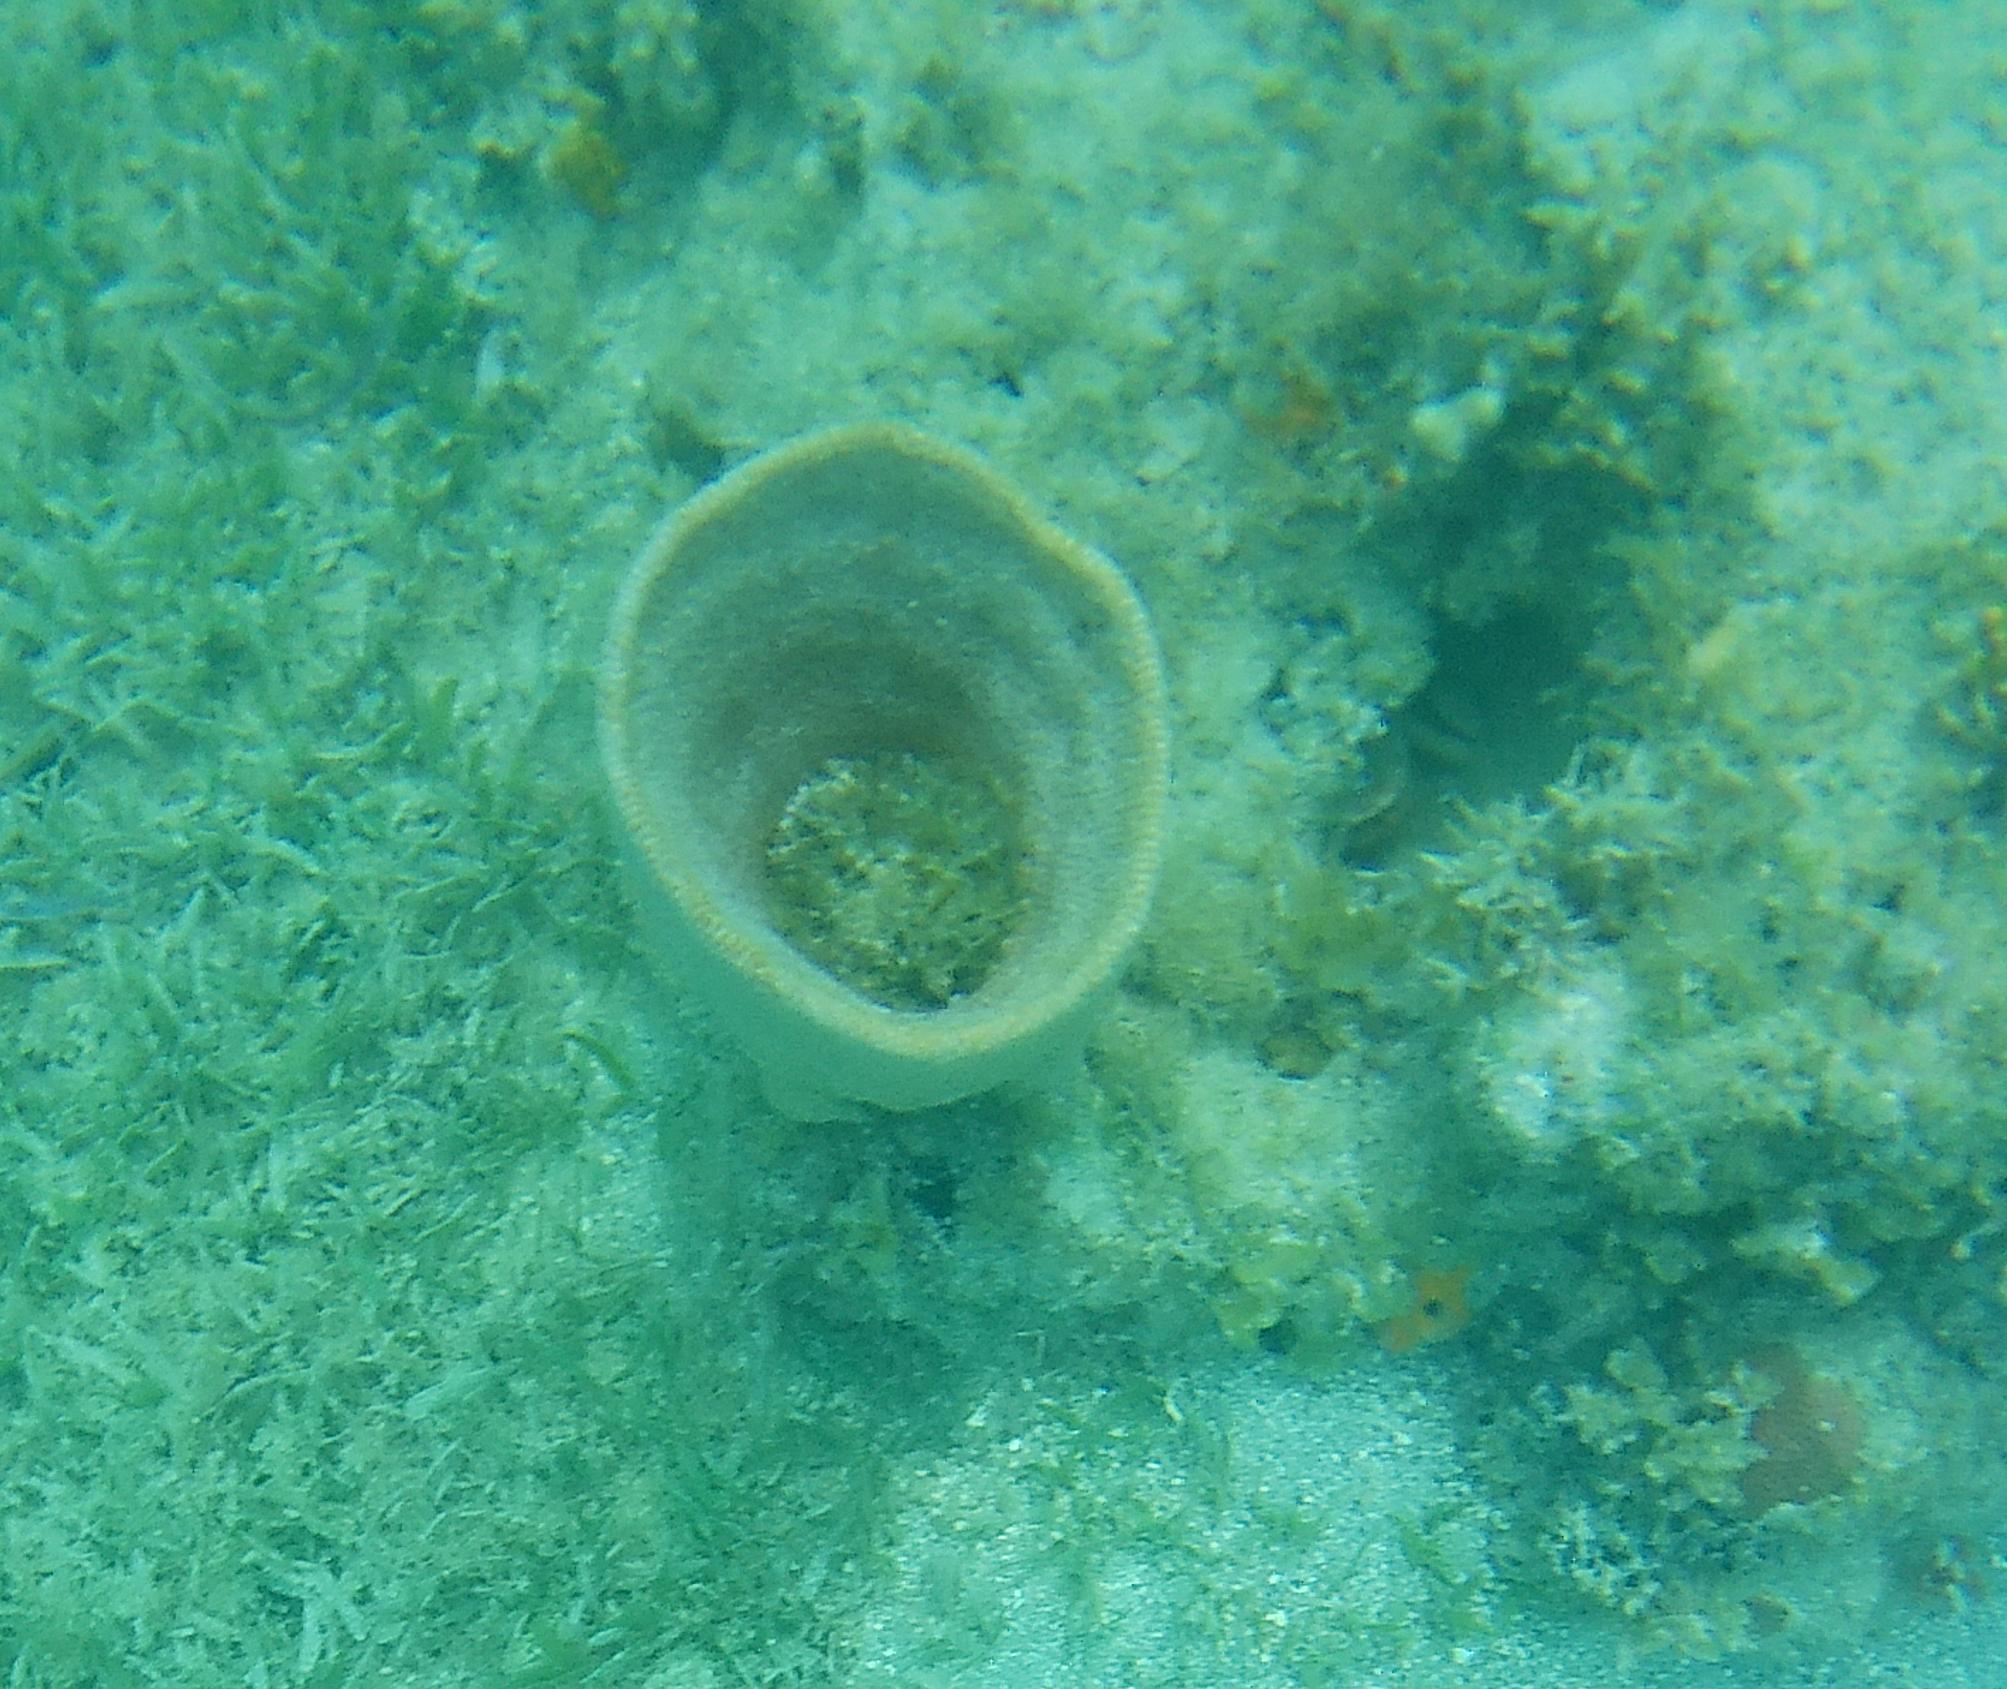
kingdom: Animalia
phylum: Porifera
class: Demospongiae
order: Dictyoceratida
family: Irciniidae
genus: Ircinia
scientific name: Ircinia campana
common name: Vase sponge
